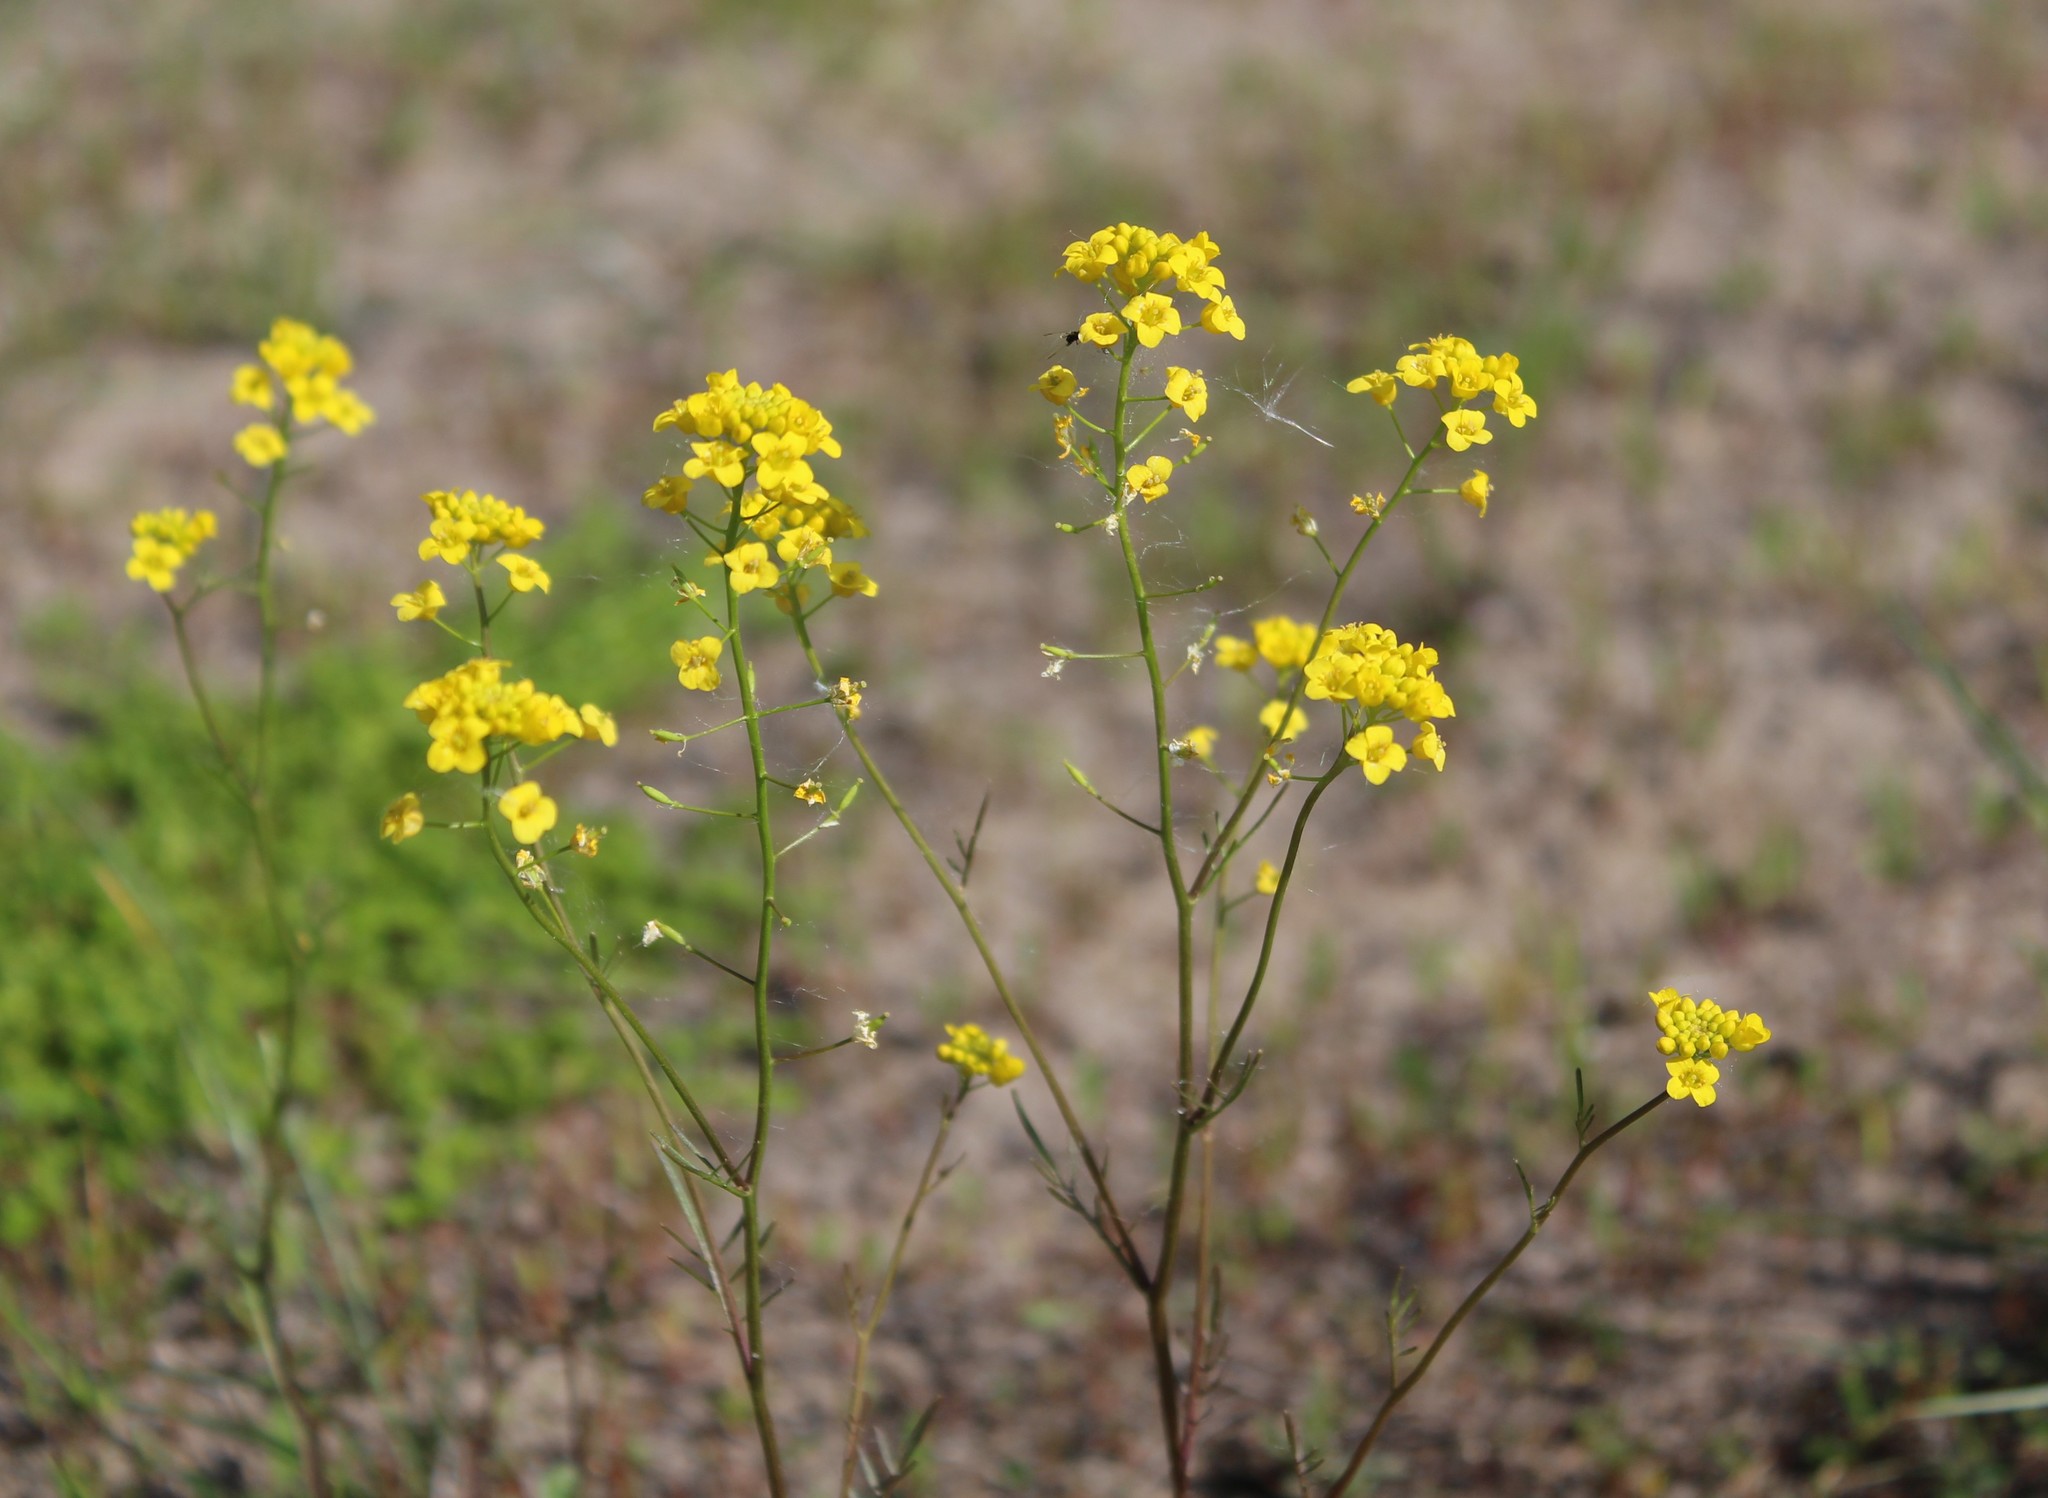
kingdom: Plantae
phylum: Tracheophyta
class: Magnoliopsida
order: Brassicales
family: Brassicaceae
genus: Barbarea
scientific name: Barbarea vulgaris
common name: Cressy-greens
